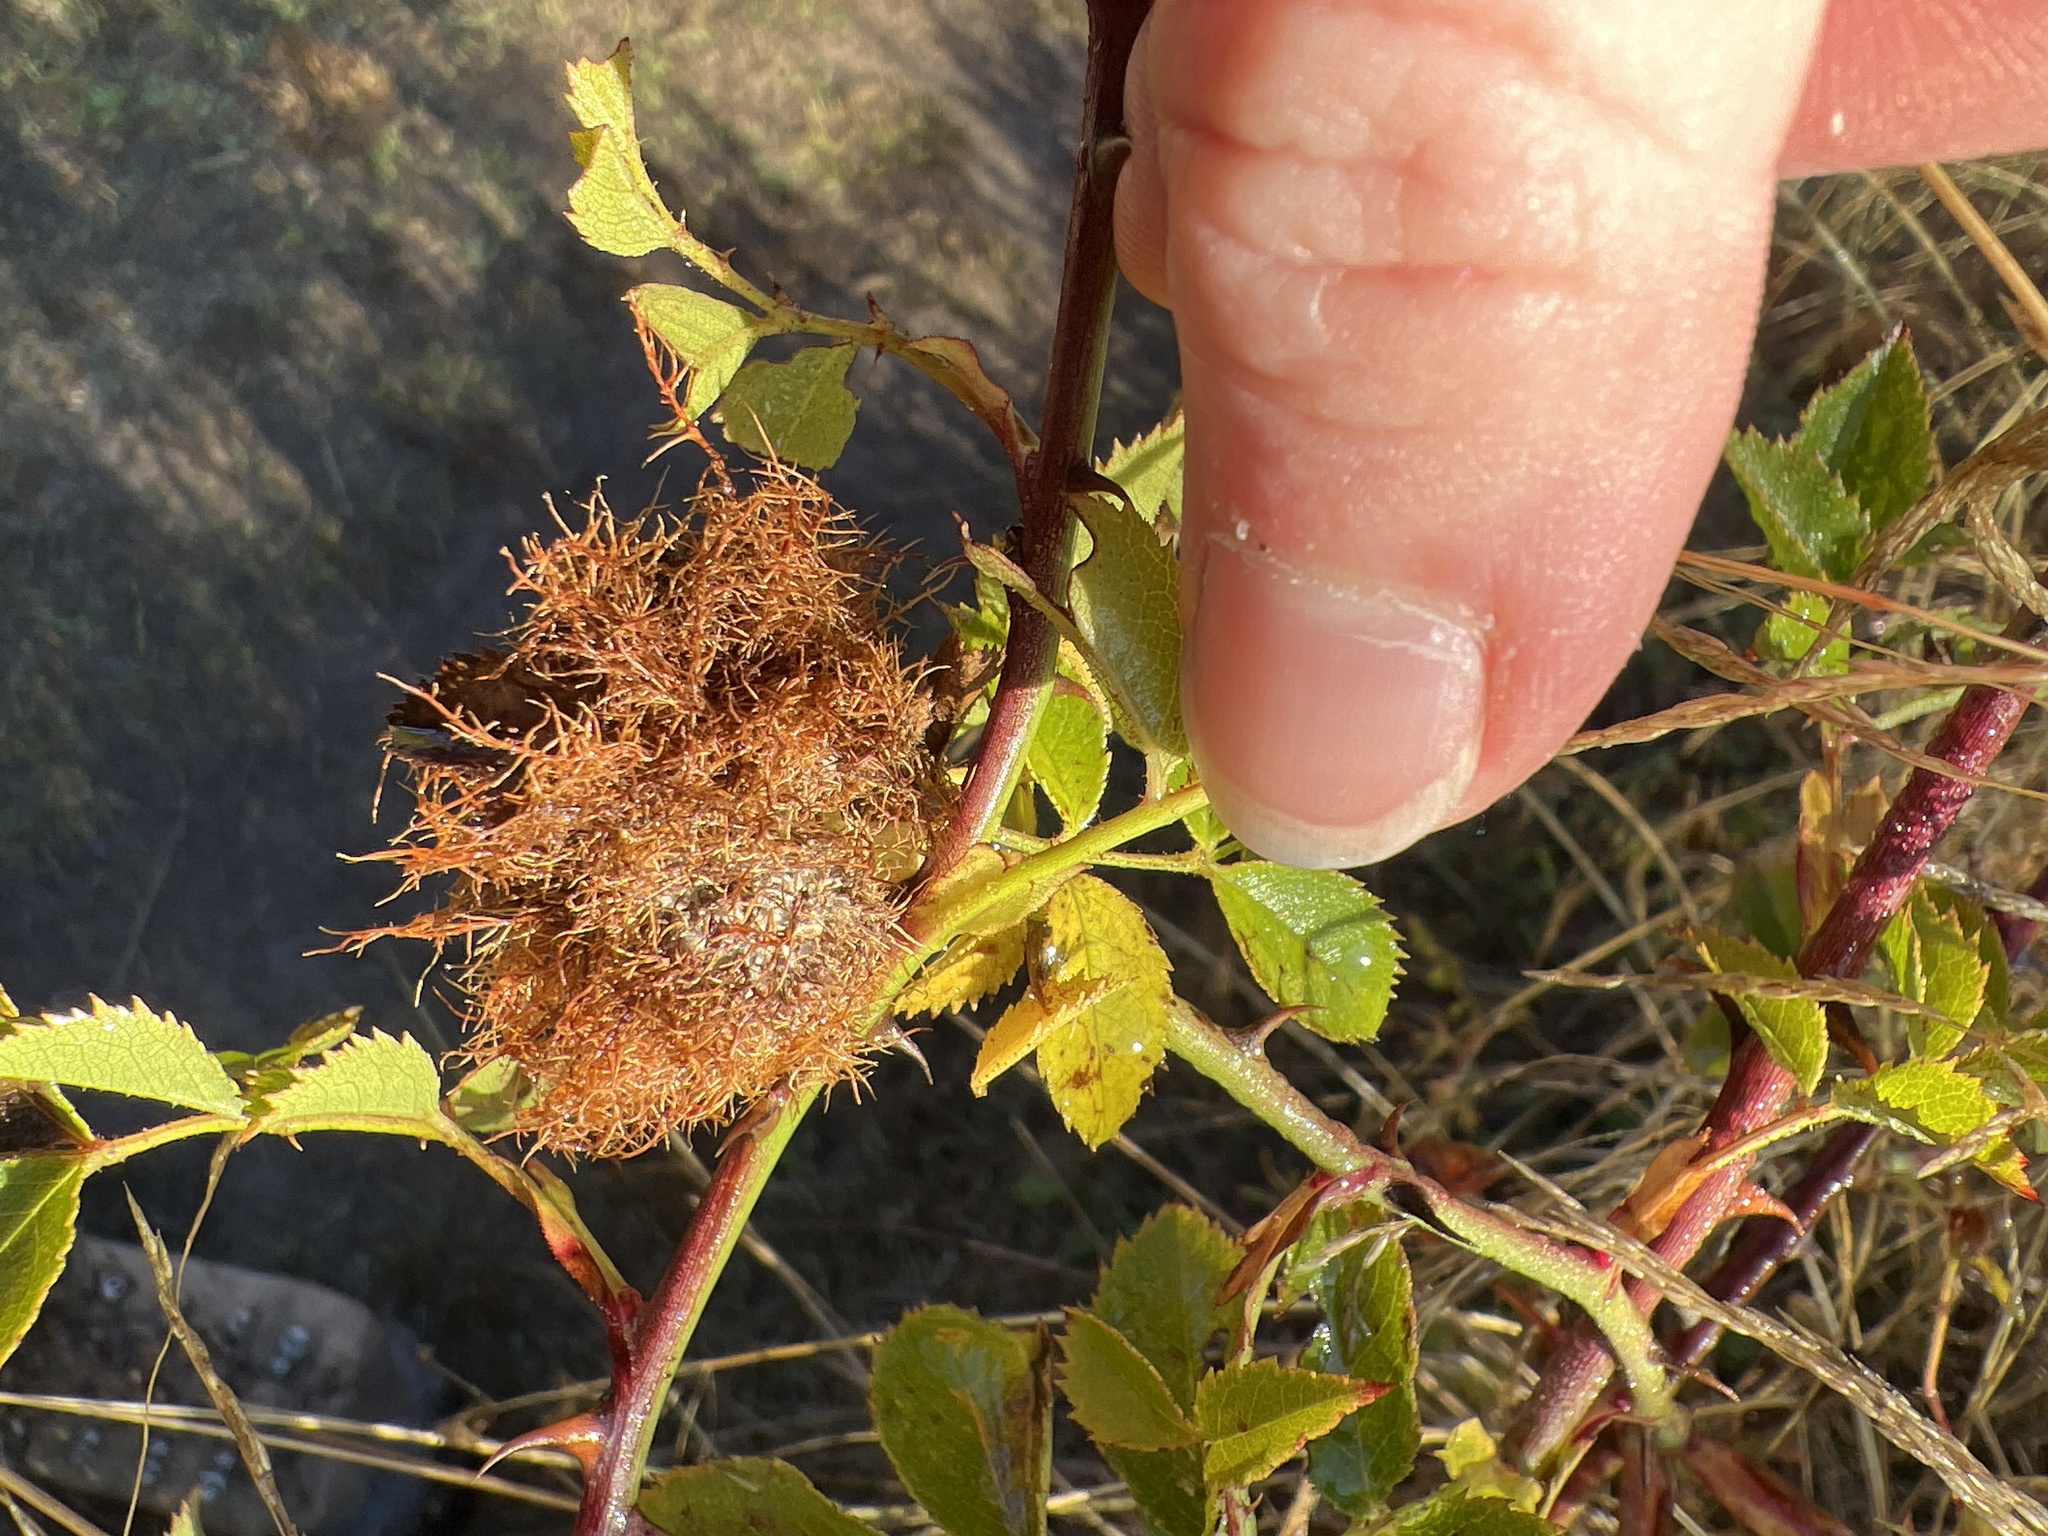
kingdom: Animalia
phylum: Arthropoda
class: Insecta
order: Hymenoptera
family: Cynipidae
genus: Diplolepis
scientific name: Diplolepis rosae
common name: Bedeguar gall
